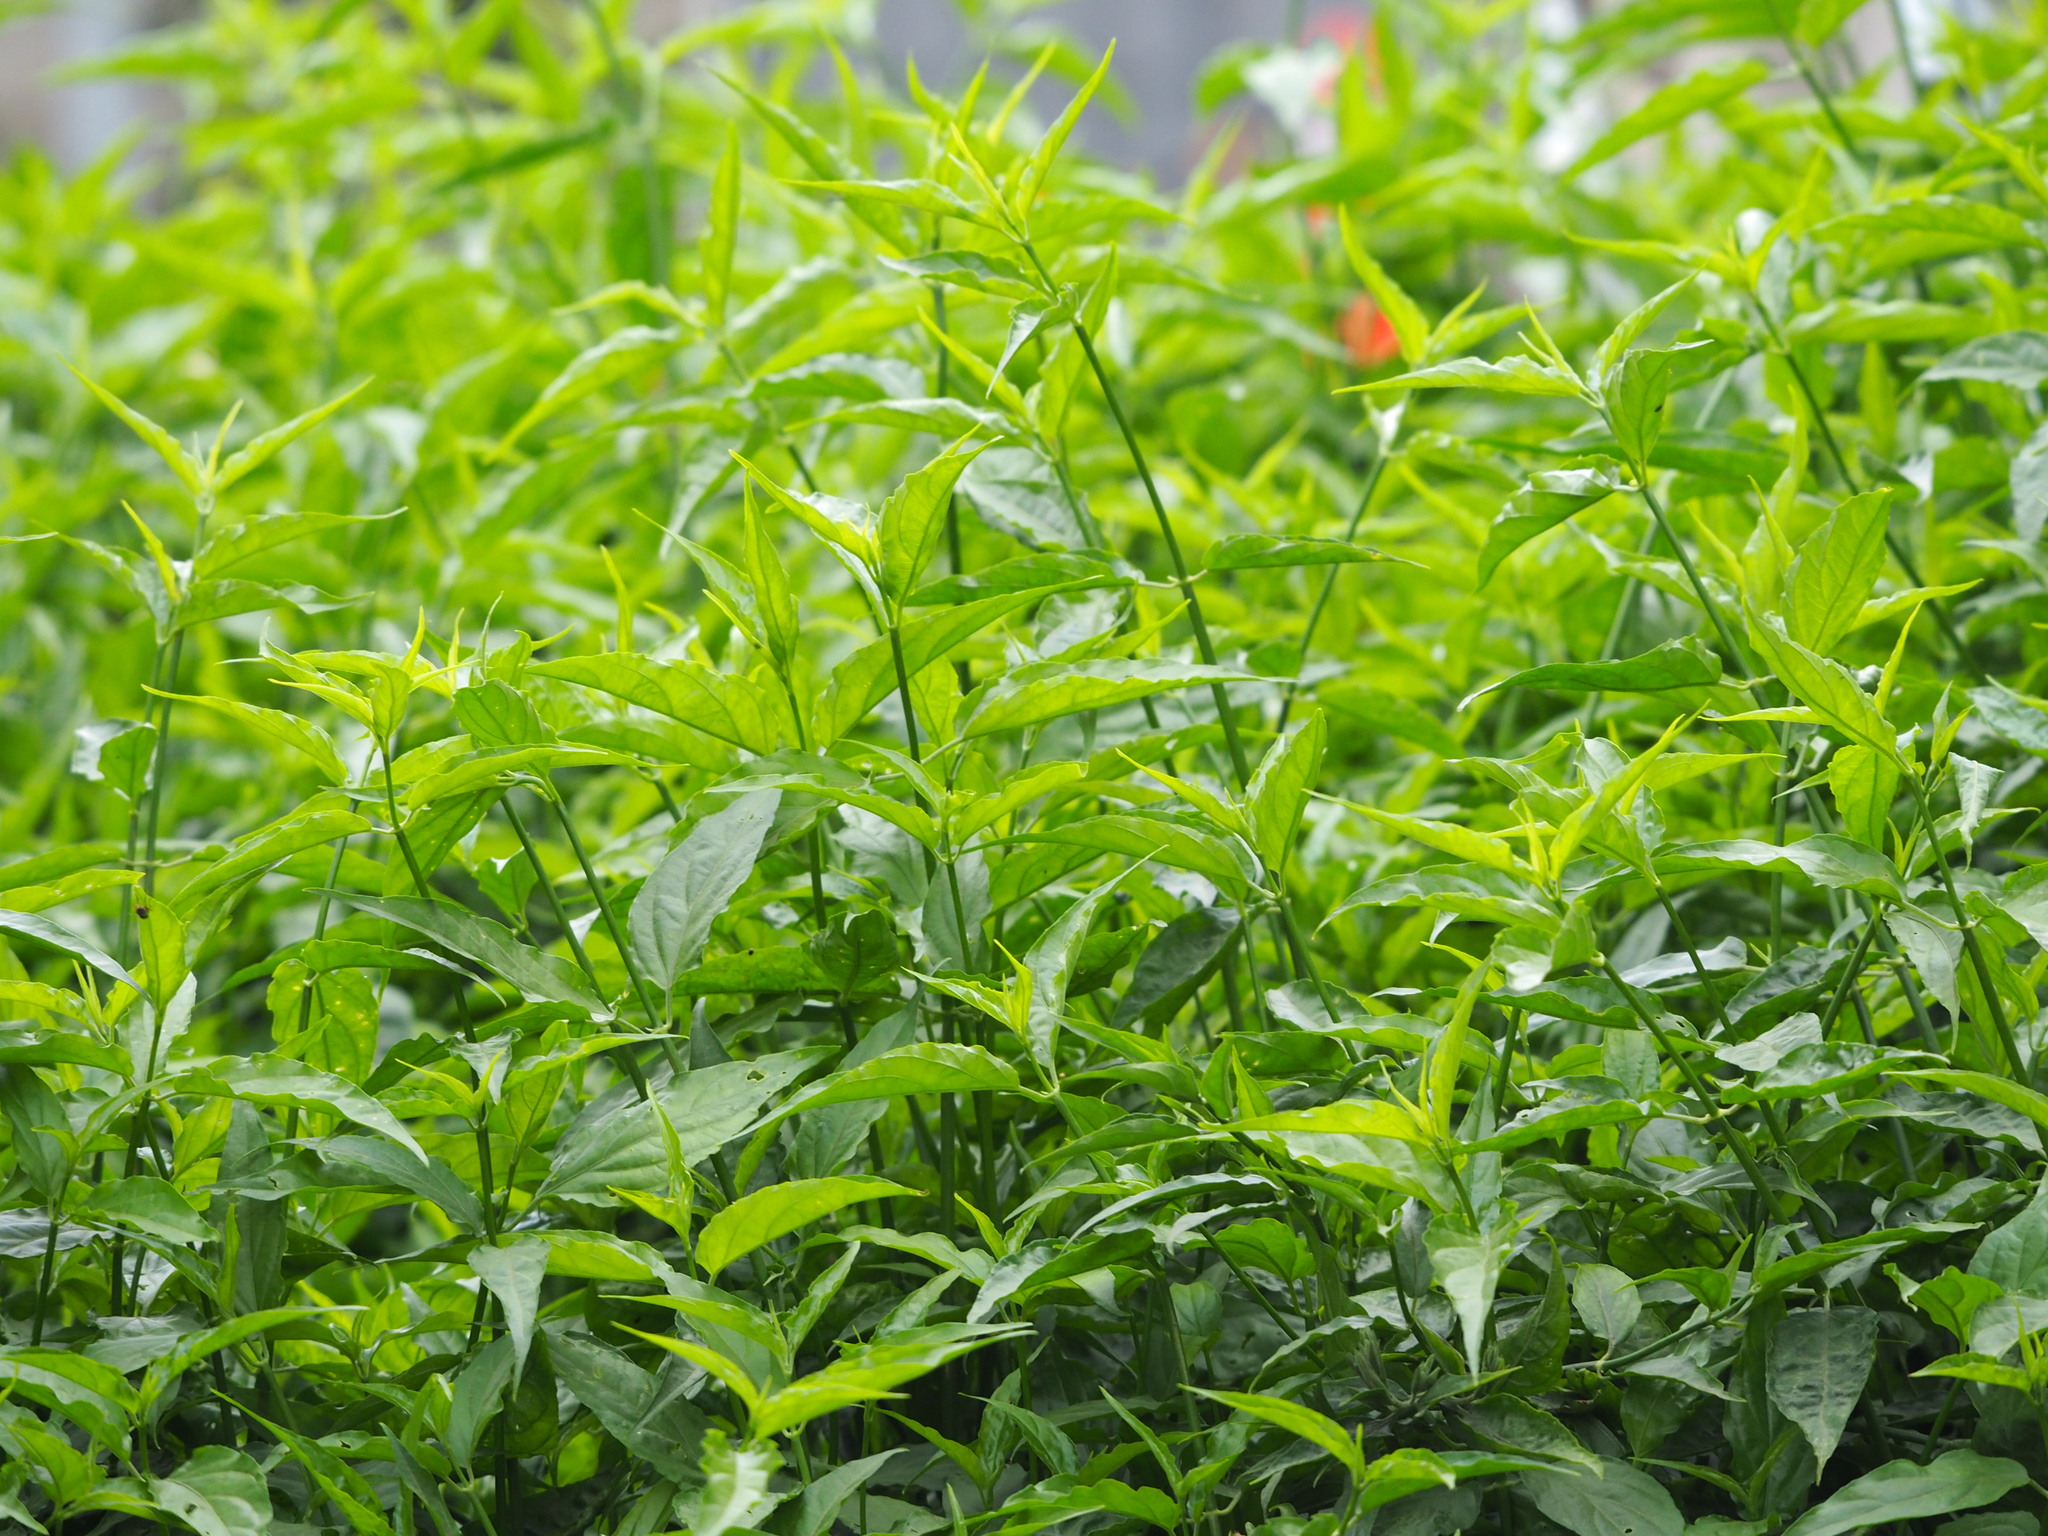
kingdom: Plantae
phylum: Tracheophyta
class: Magnoliopsida
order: Lamiales
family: Acanthaceae
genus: Clinacanthus
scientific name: Clinacanthus nutans
